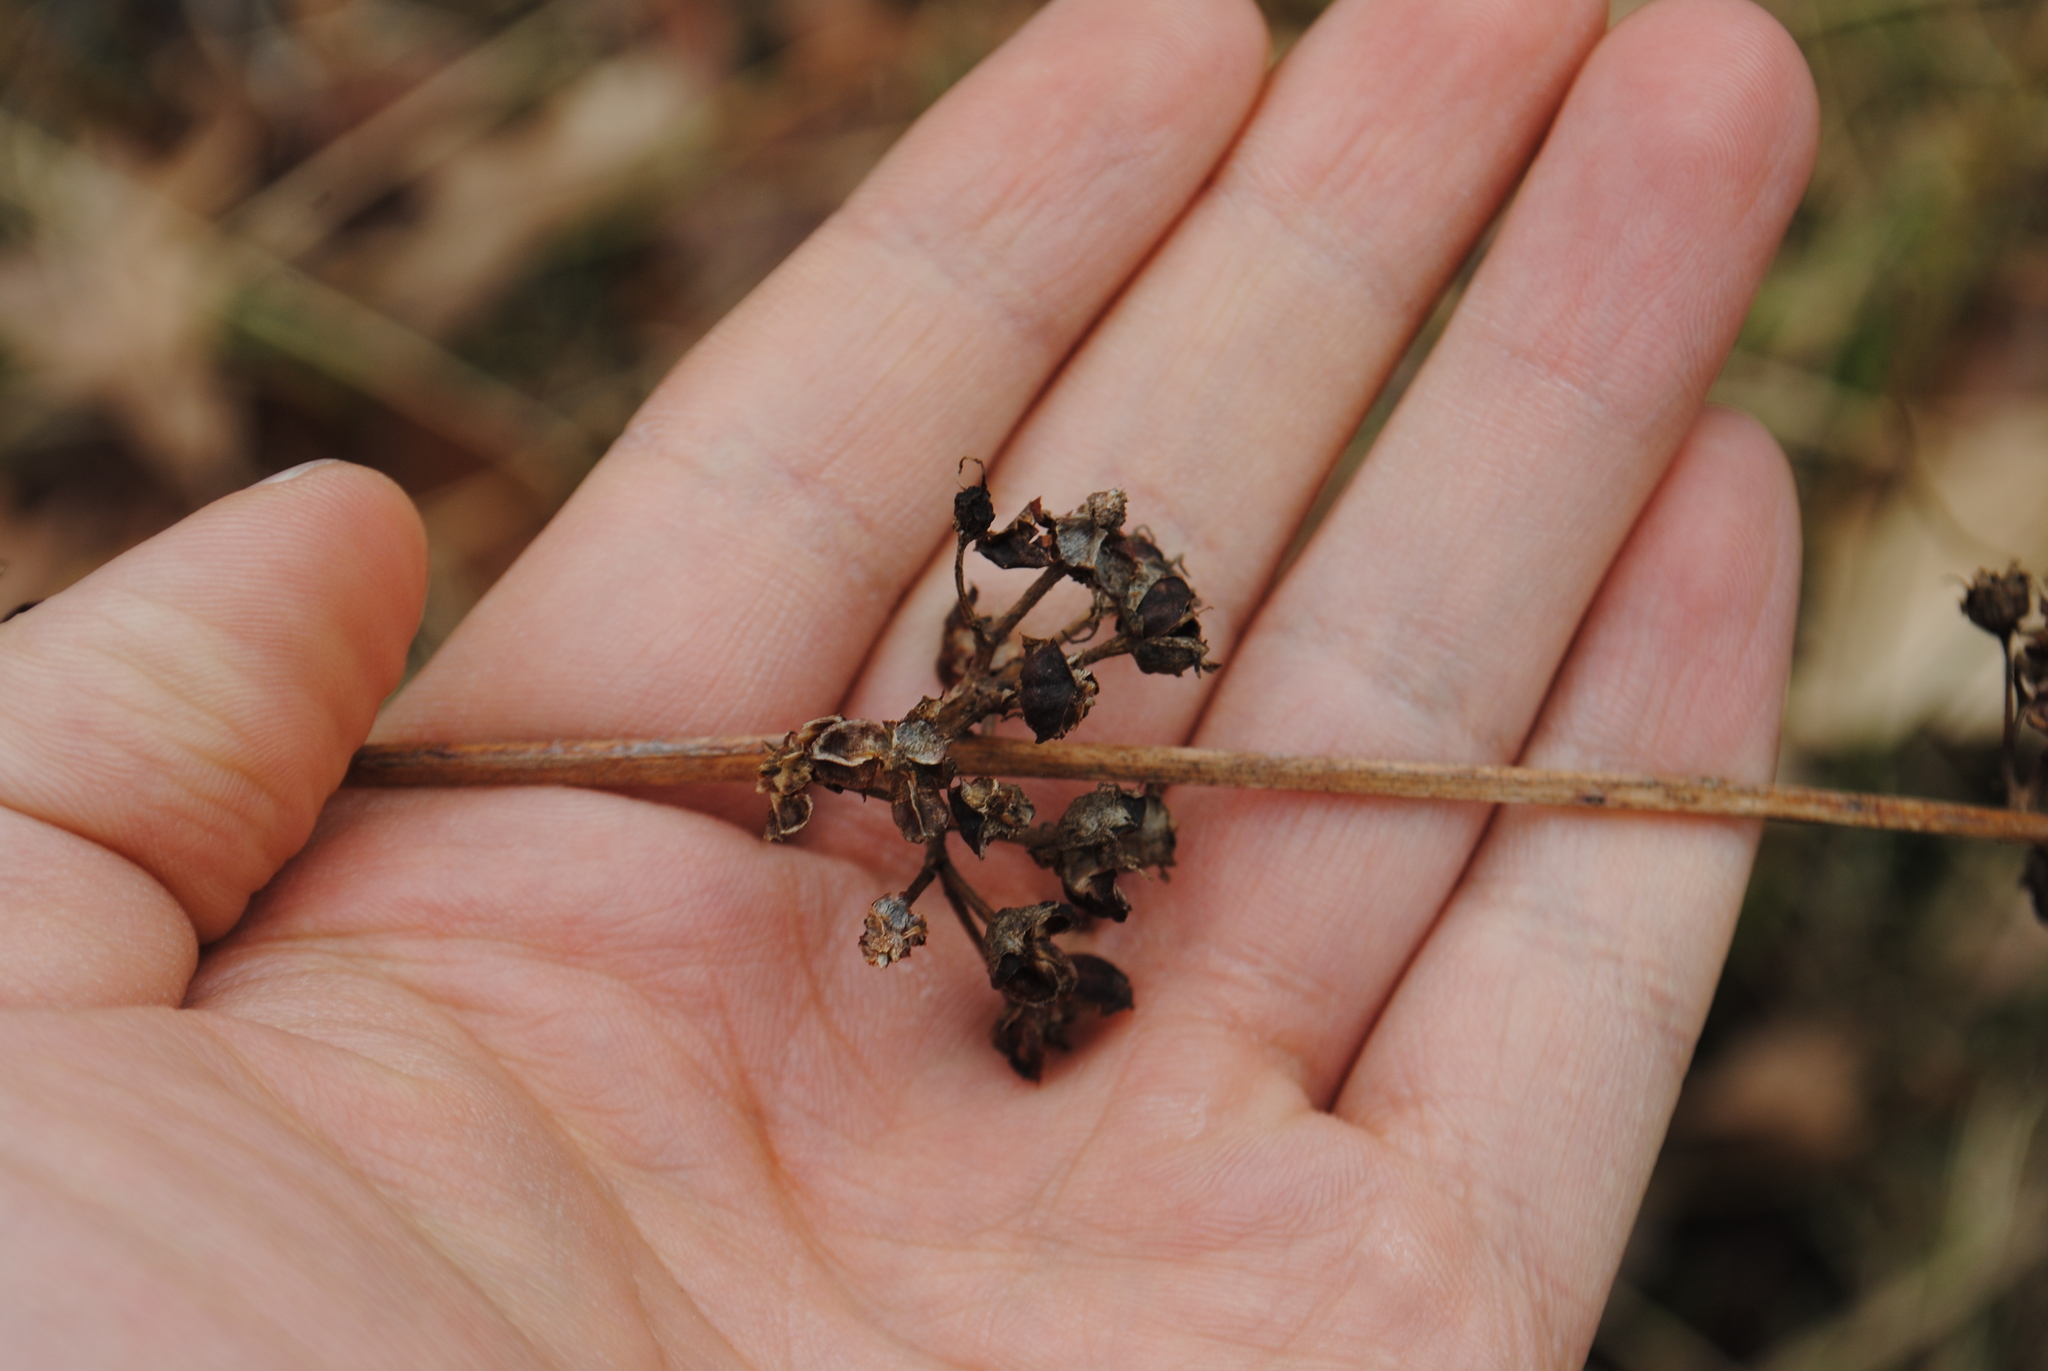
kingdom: Plantae
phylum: Tracheophyta
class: Magnoliopsida
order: Myrtales
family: Lythraceae
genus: Decodon
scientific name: Decodon verticillatus
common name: Hairy swamp loosestrife
